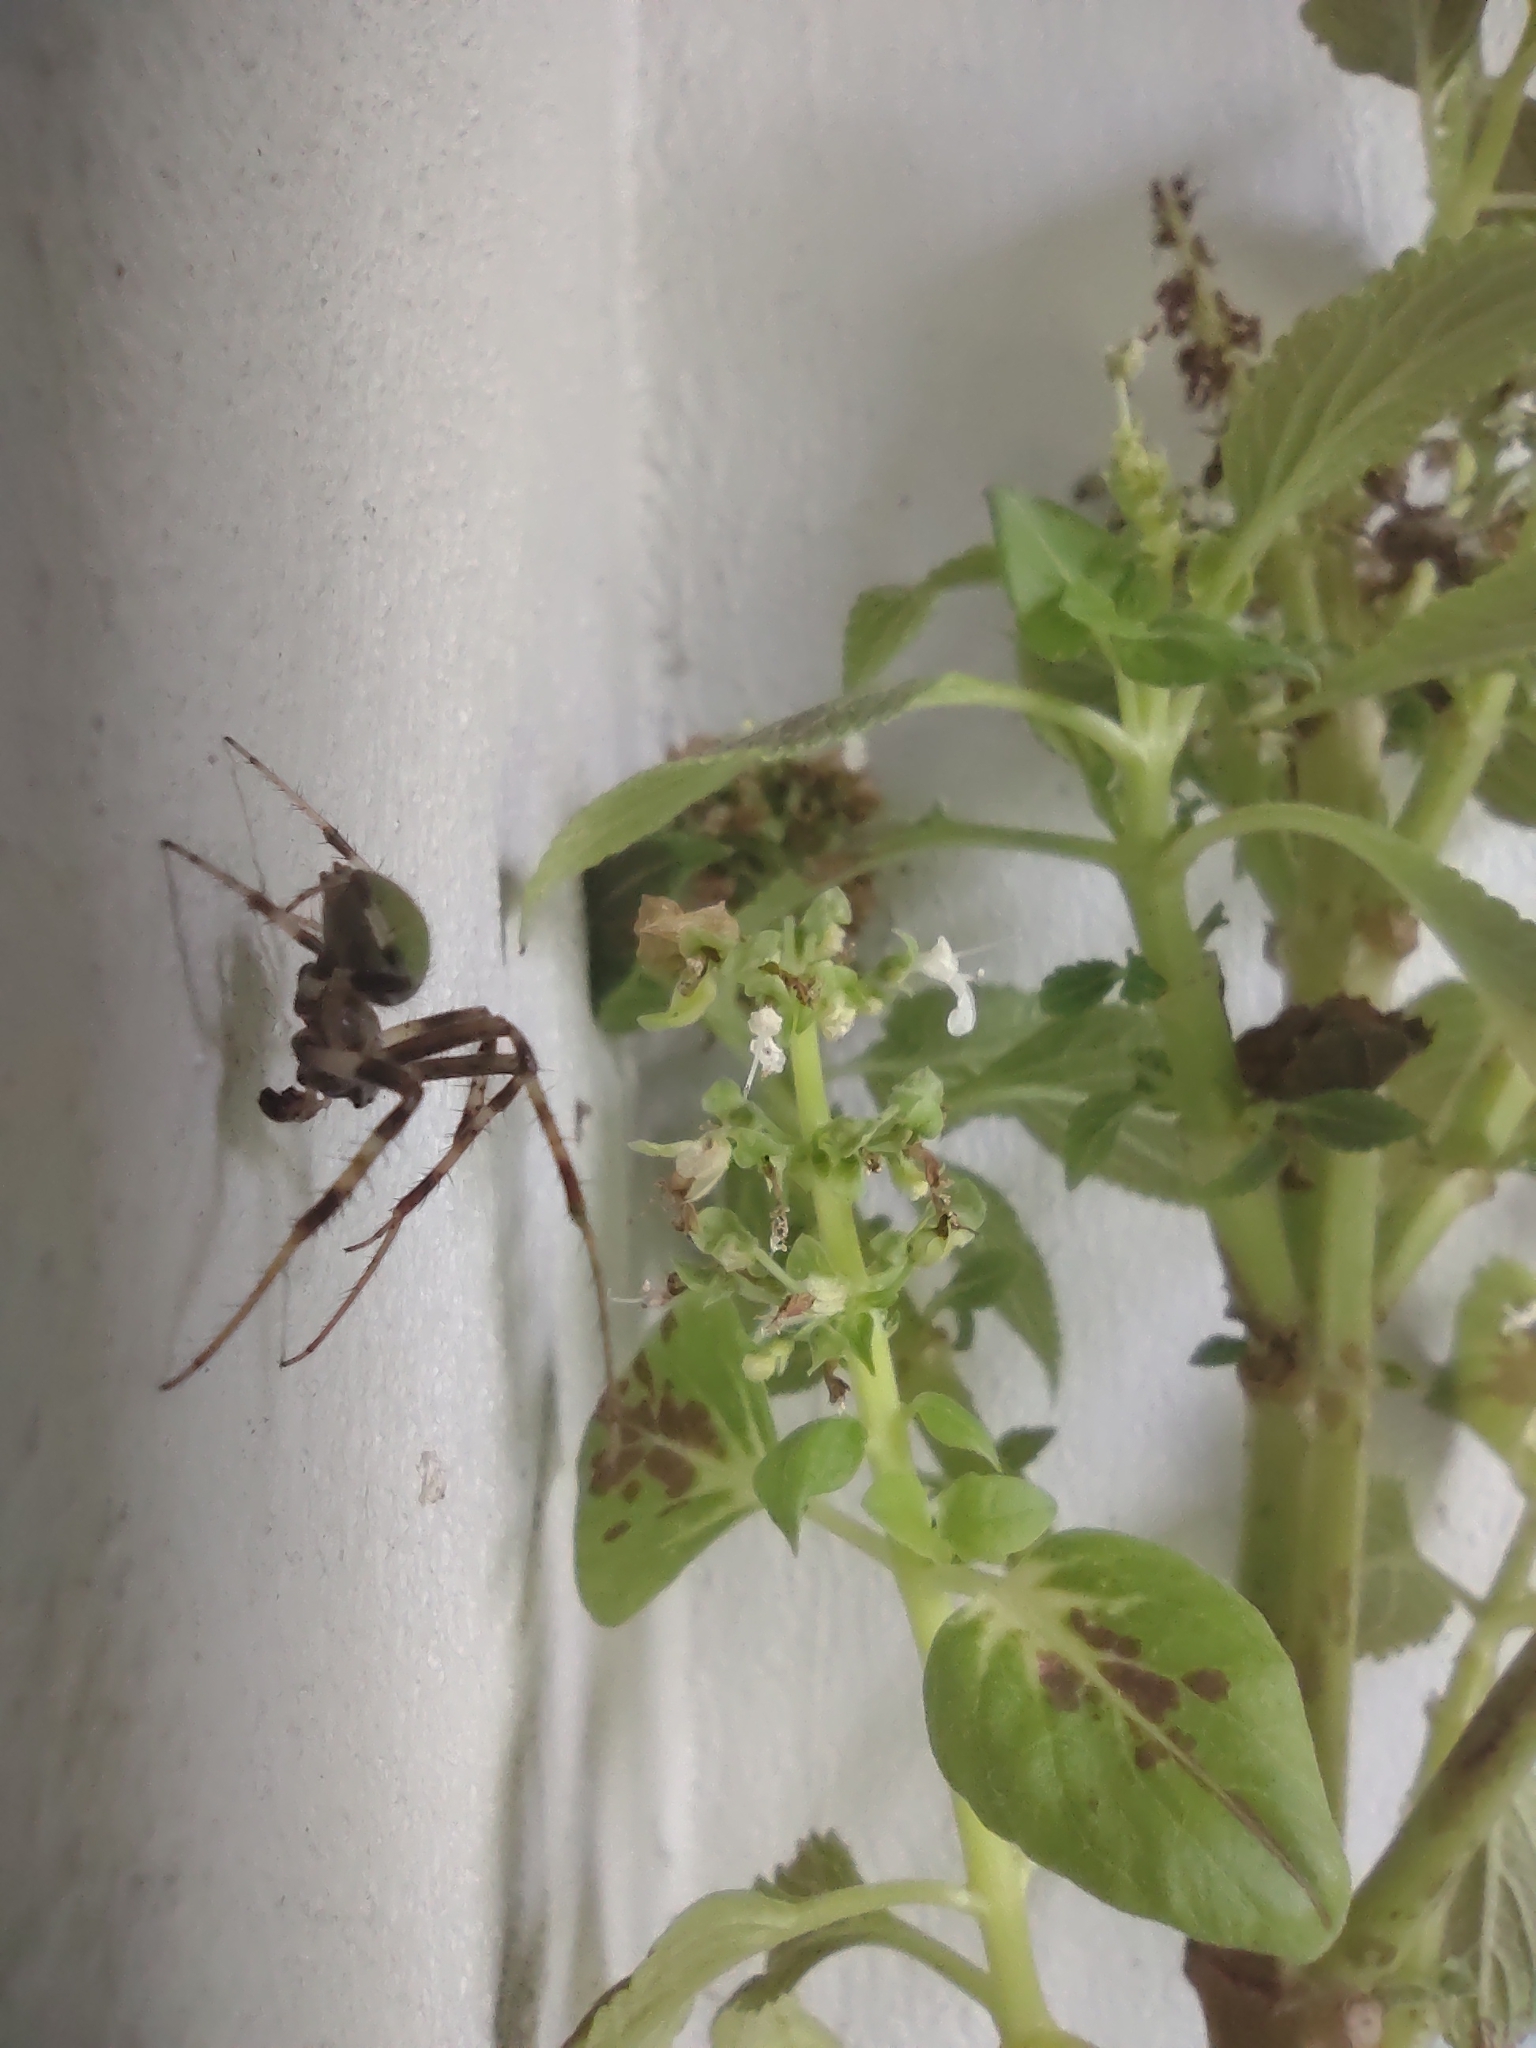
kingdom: Animalia
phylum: Arthropoda
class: Arachnida
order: Araneae
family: Araneidae
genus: Araneus
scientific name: Araneus lathyrinus
